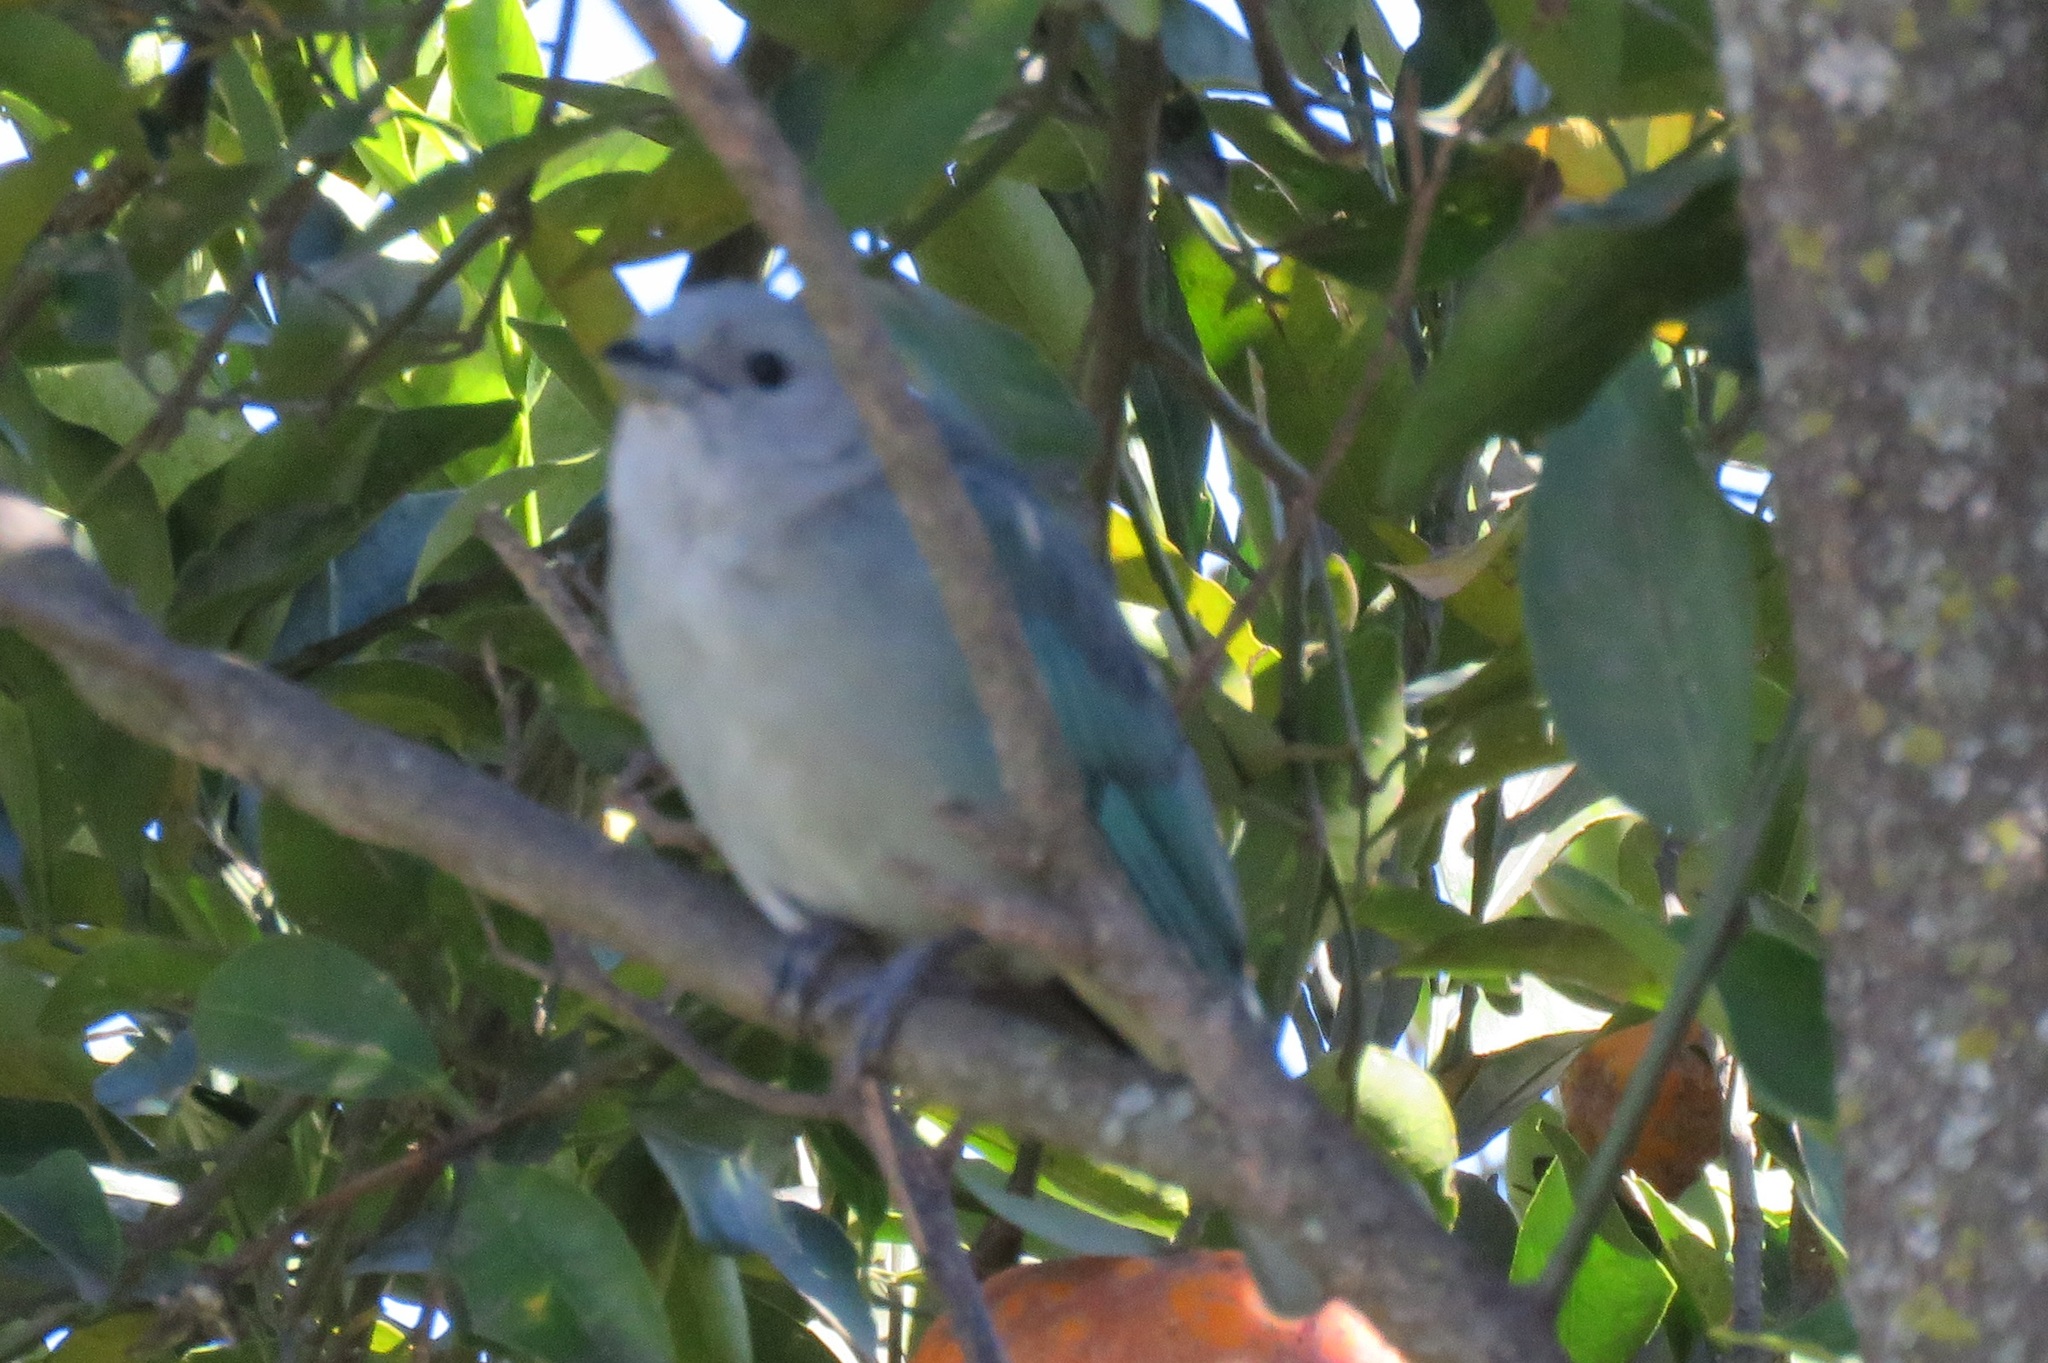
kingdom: Animalia
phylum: Chordata
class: Aves
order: Passeriformes
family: Thraupidae
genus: Thraupis
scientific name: Thraupis sayaca
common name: Sayaca tanager
